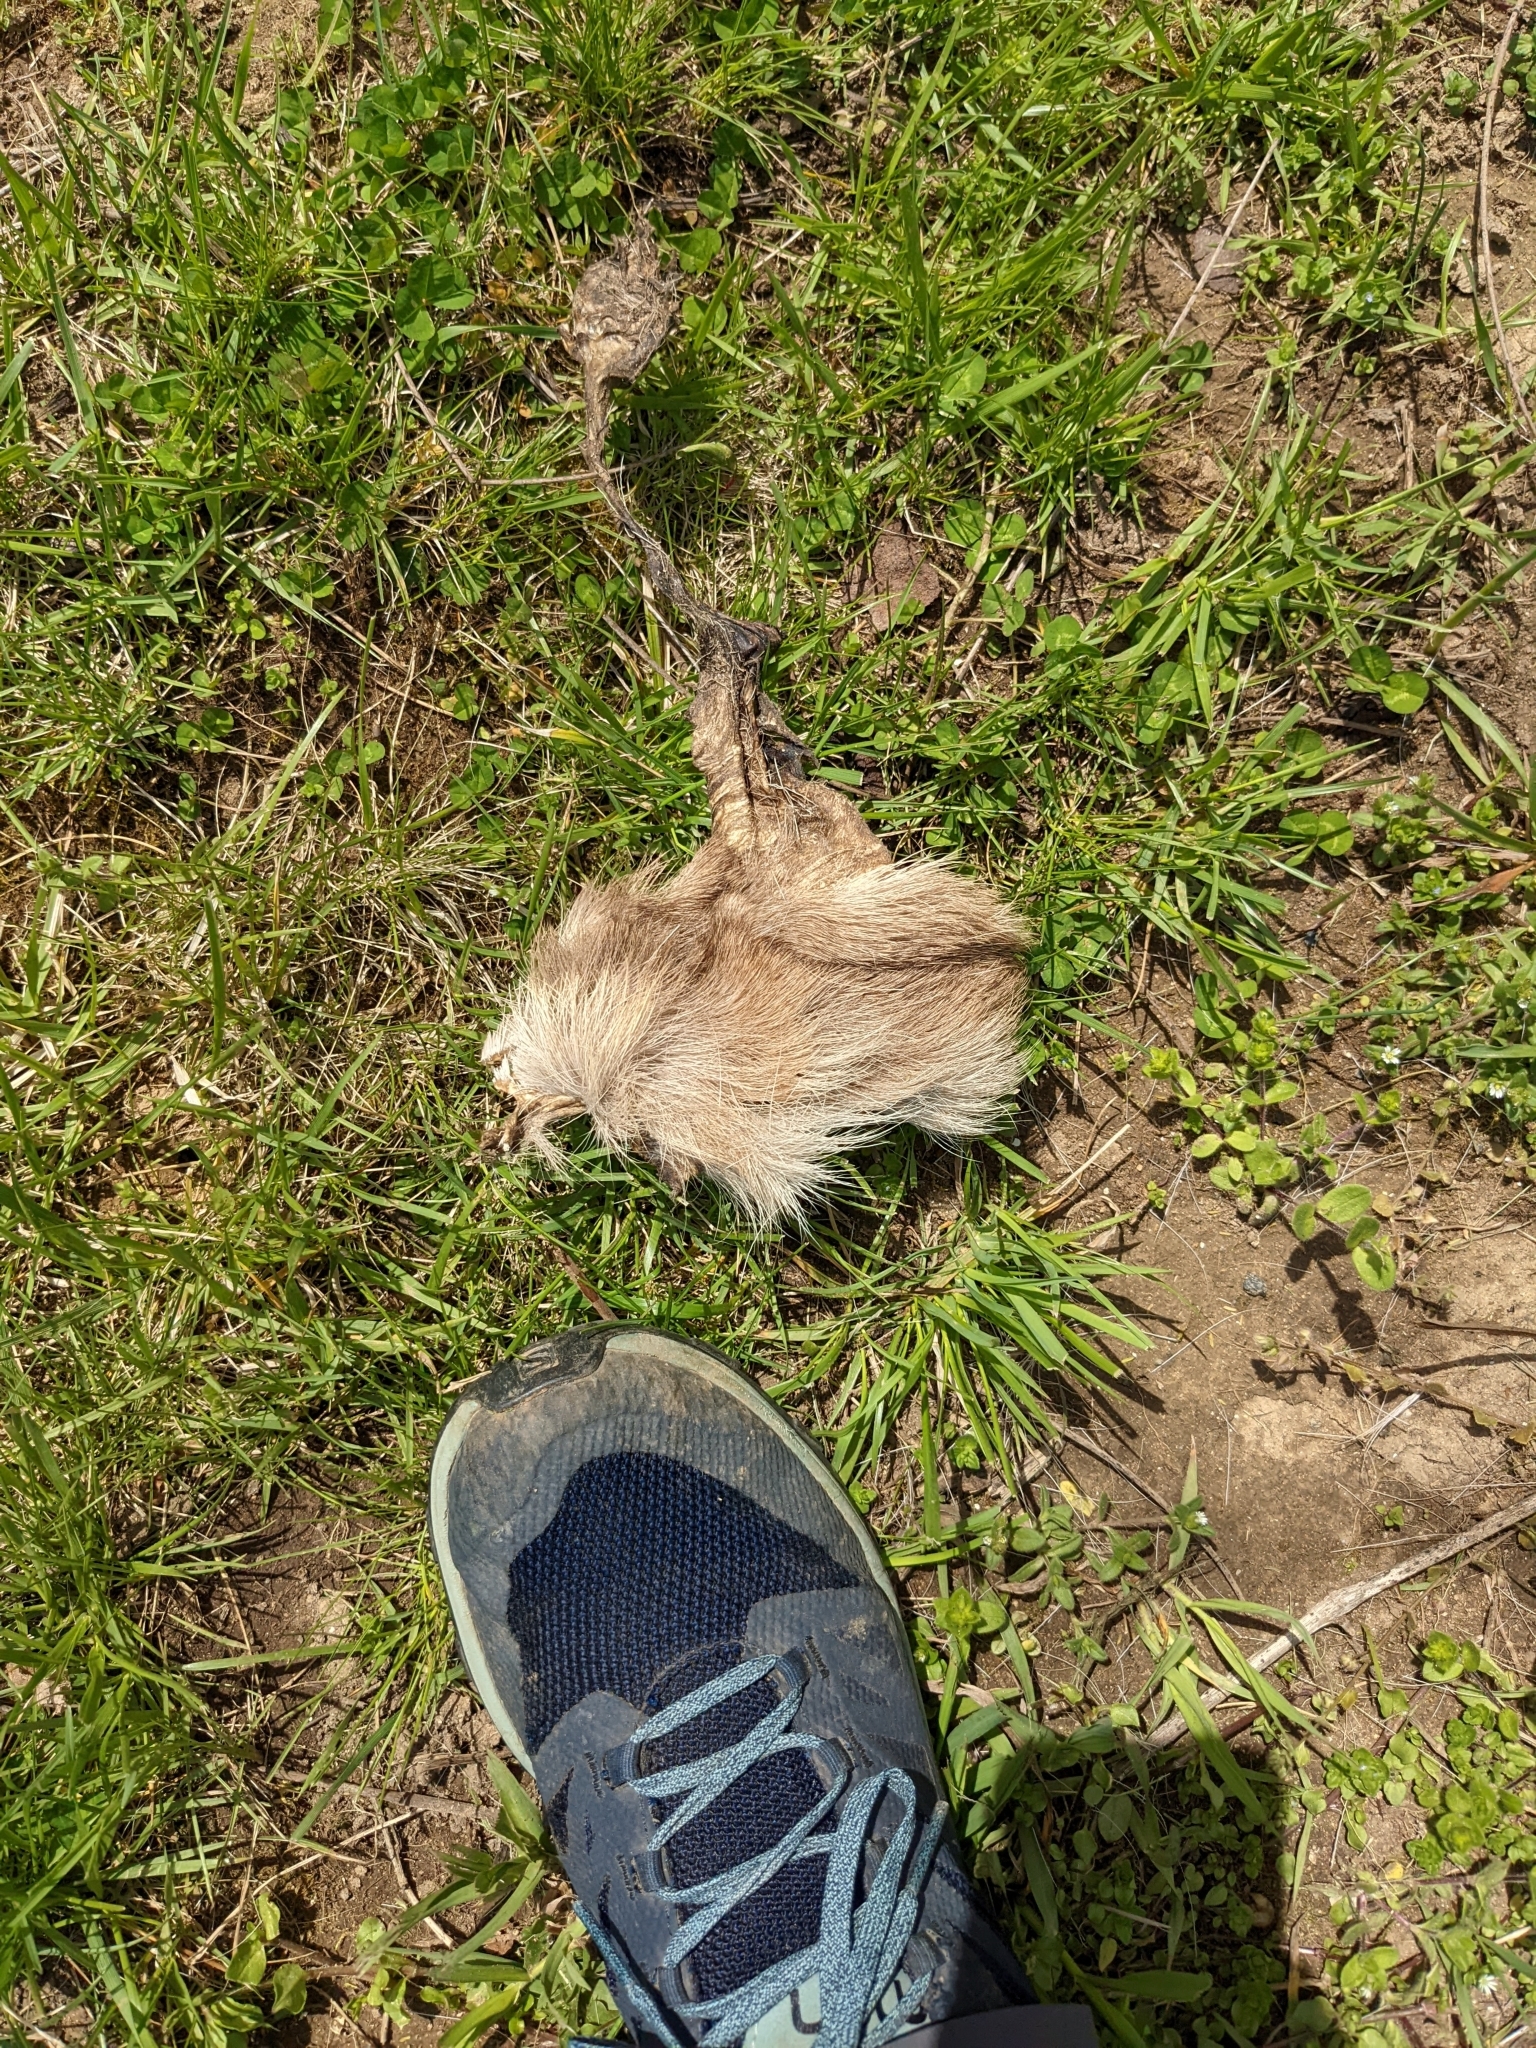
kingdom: Animalia
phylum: Chordata
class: Mammalia
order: Artiodactyla
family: Cervidae
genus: Odocoileus
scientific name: Odocoileus virginianus
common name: White-tailed deer
